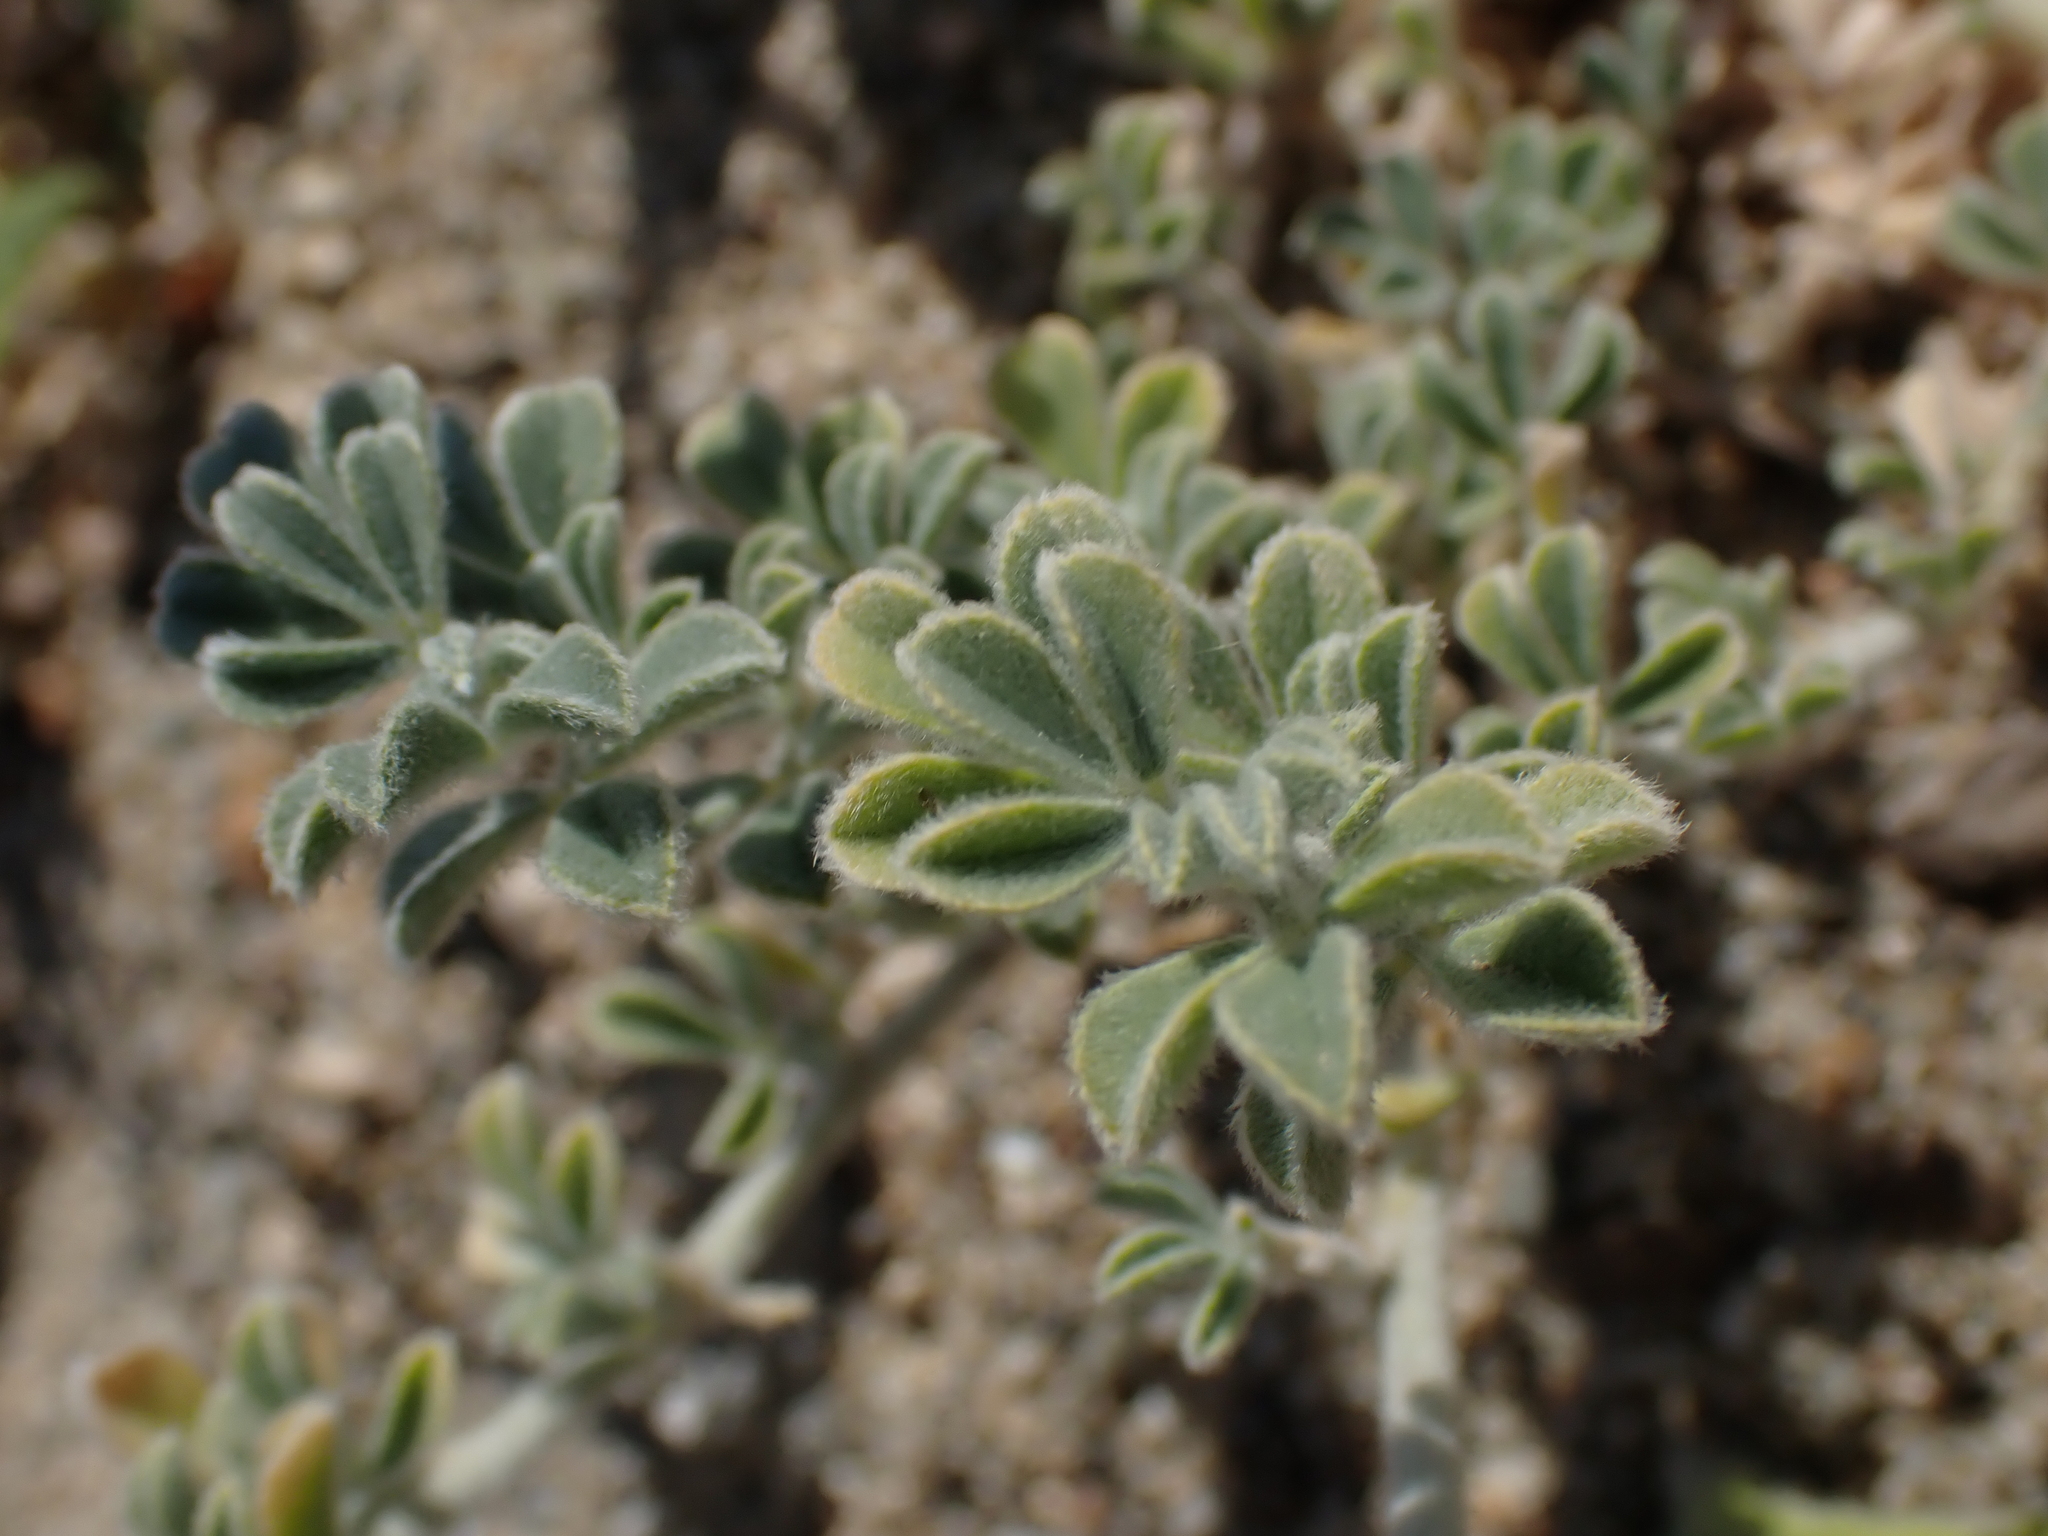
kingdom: Plantae
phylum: Tracheophyta
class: Magnoliopsida
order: Fabales
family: Fabaceae
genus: Medicago
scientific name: Medicago marina
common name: Sea medick
